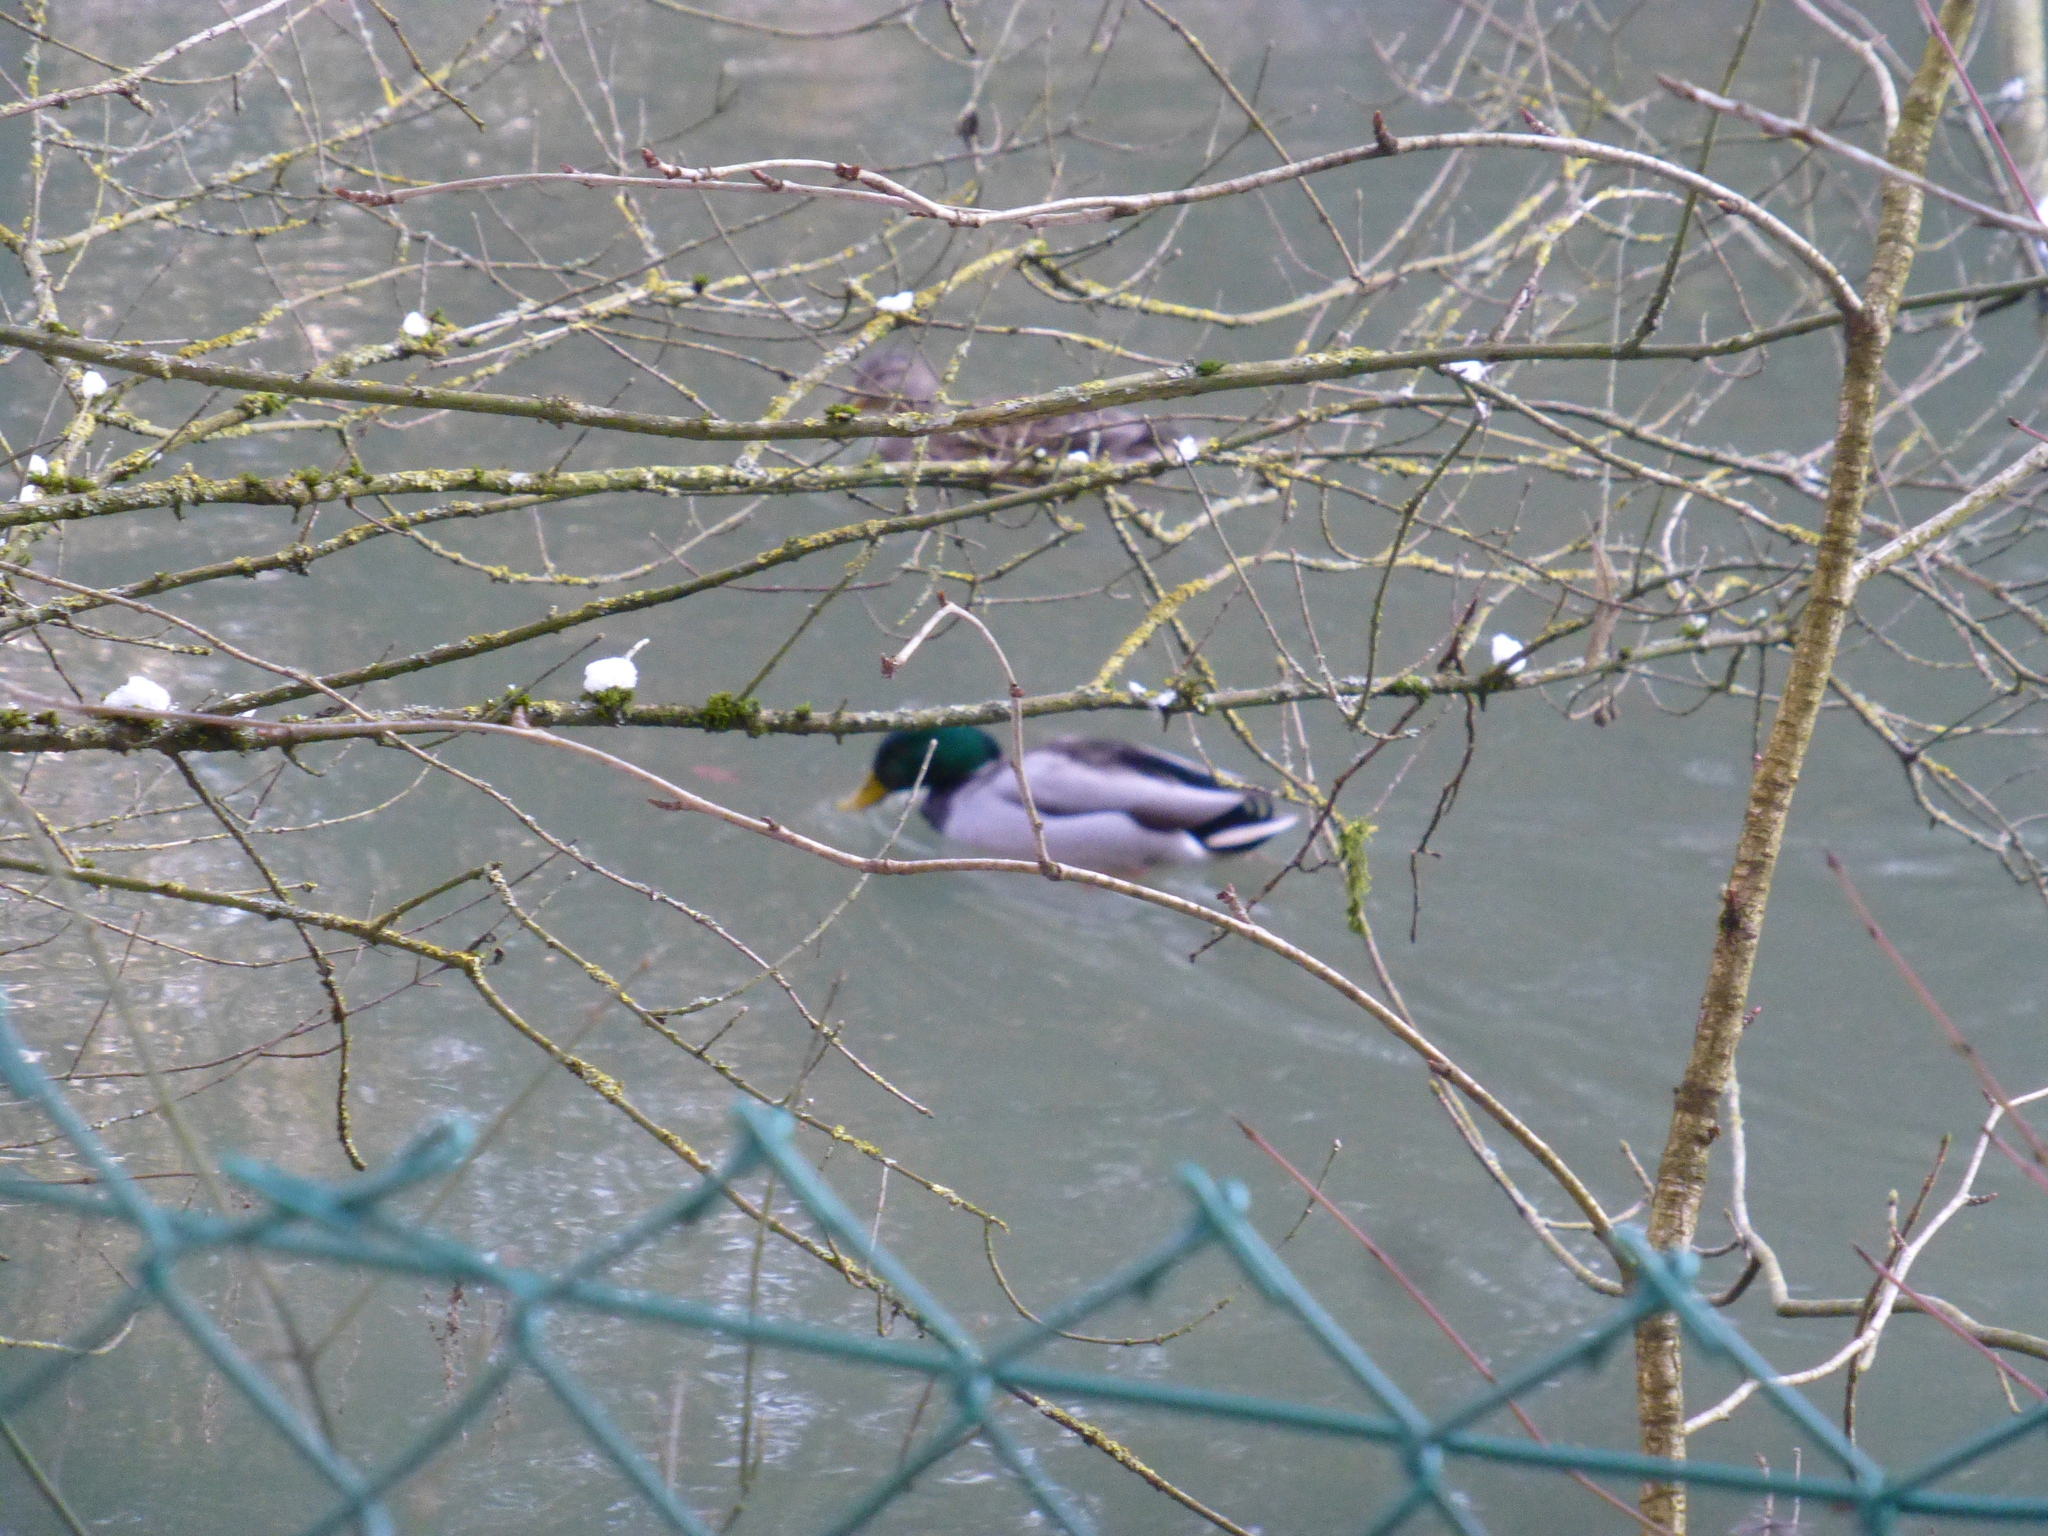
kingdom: Animalia
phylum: Chordata
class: Aves
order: Anseriformes
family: Anatidae
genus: Anas
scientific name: Anas platyrhynchos
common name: Mallard
